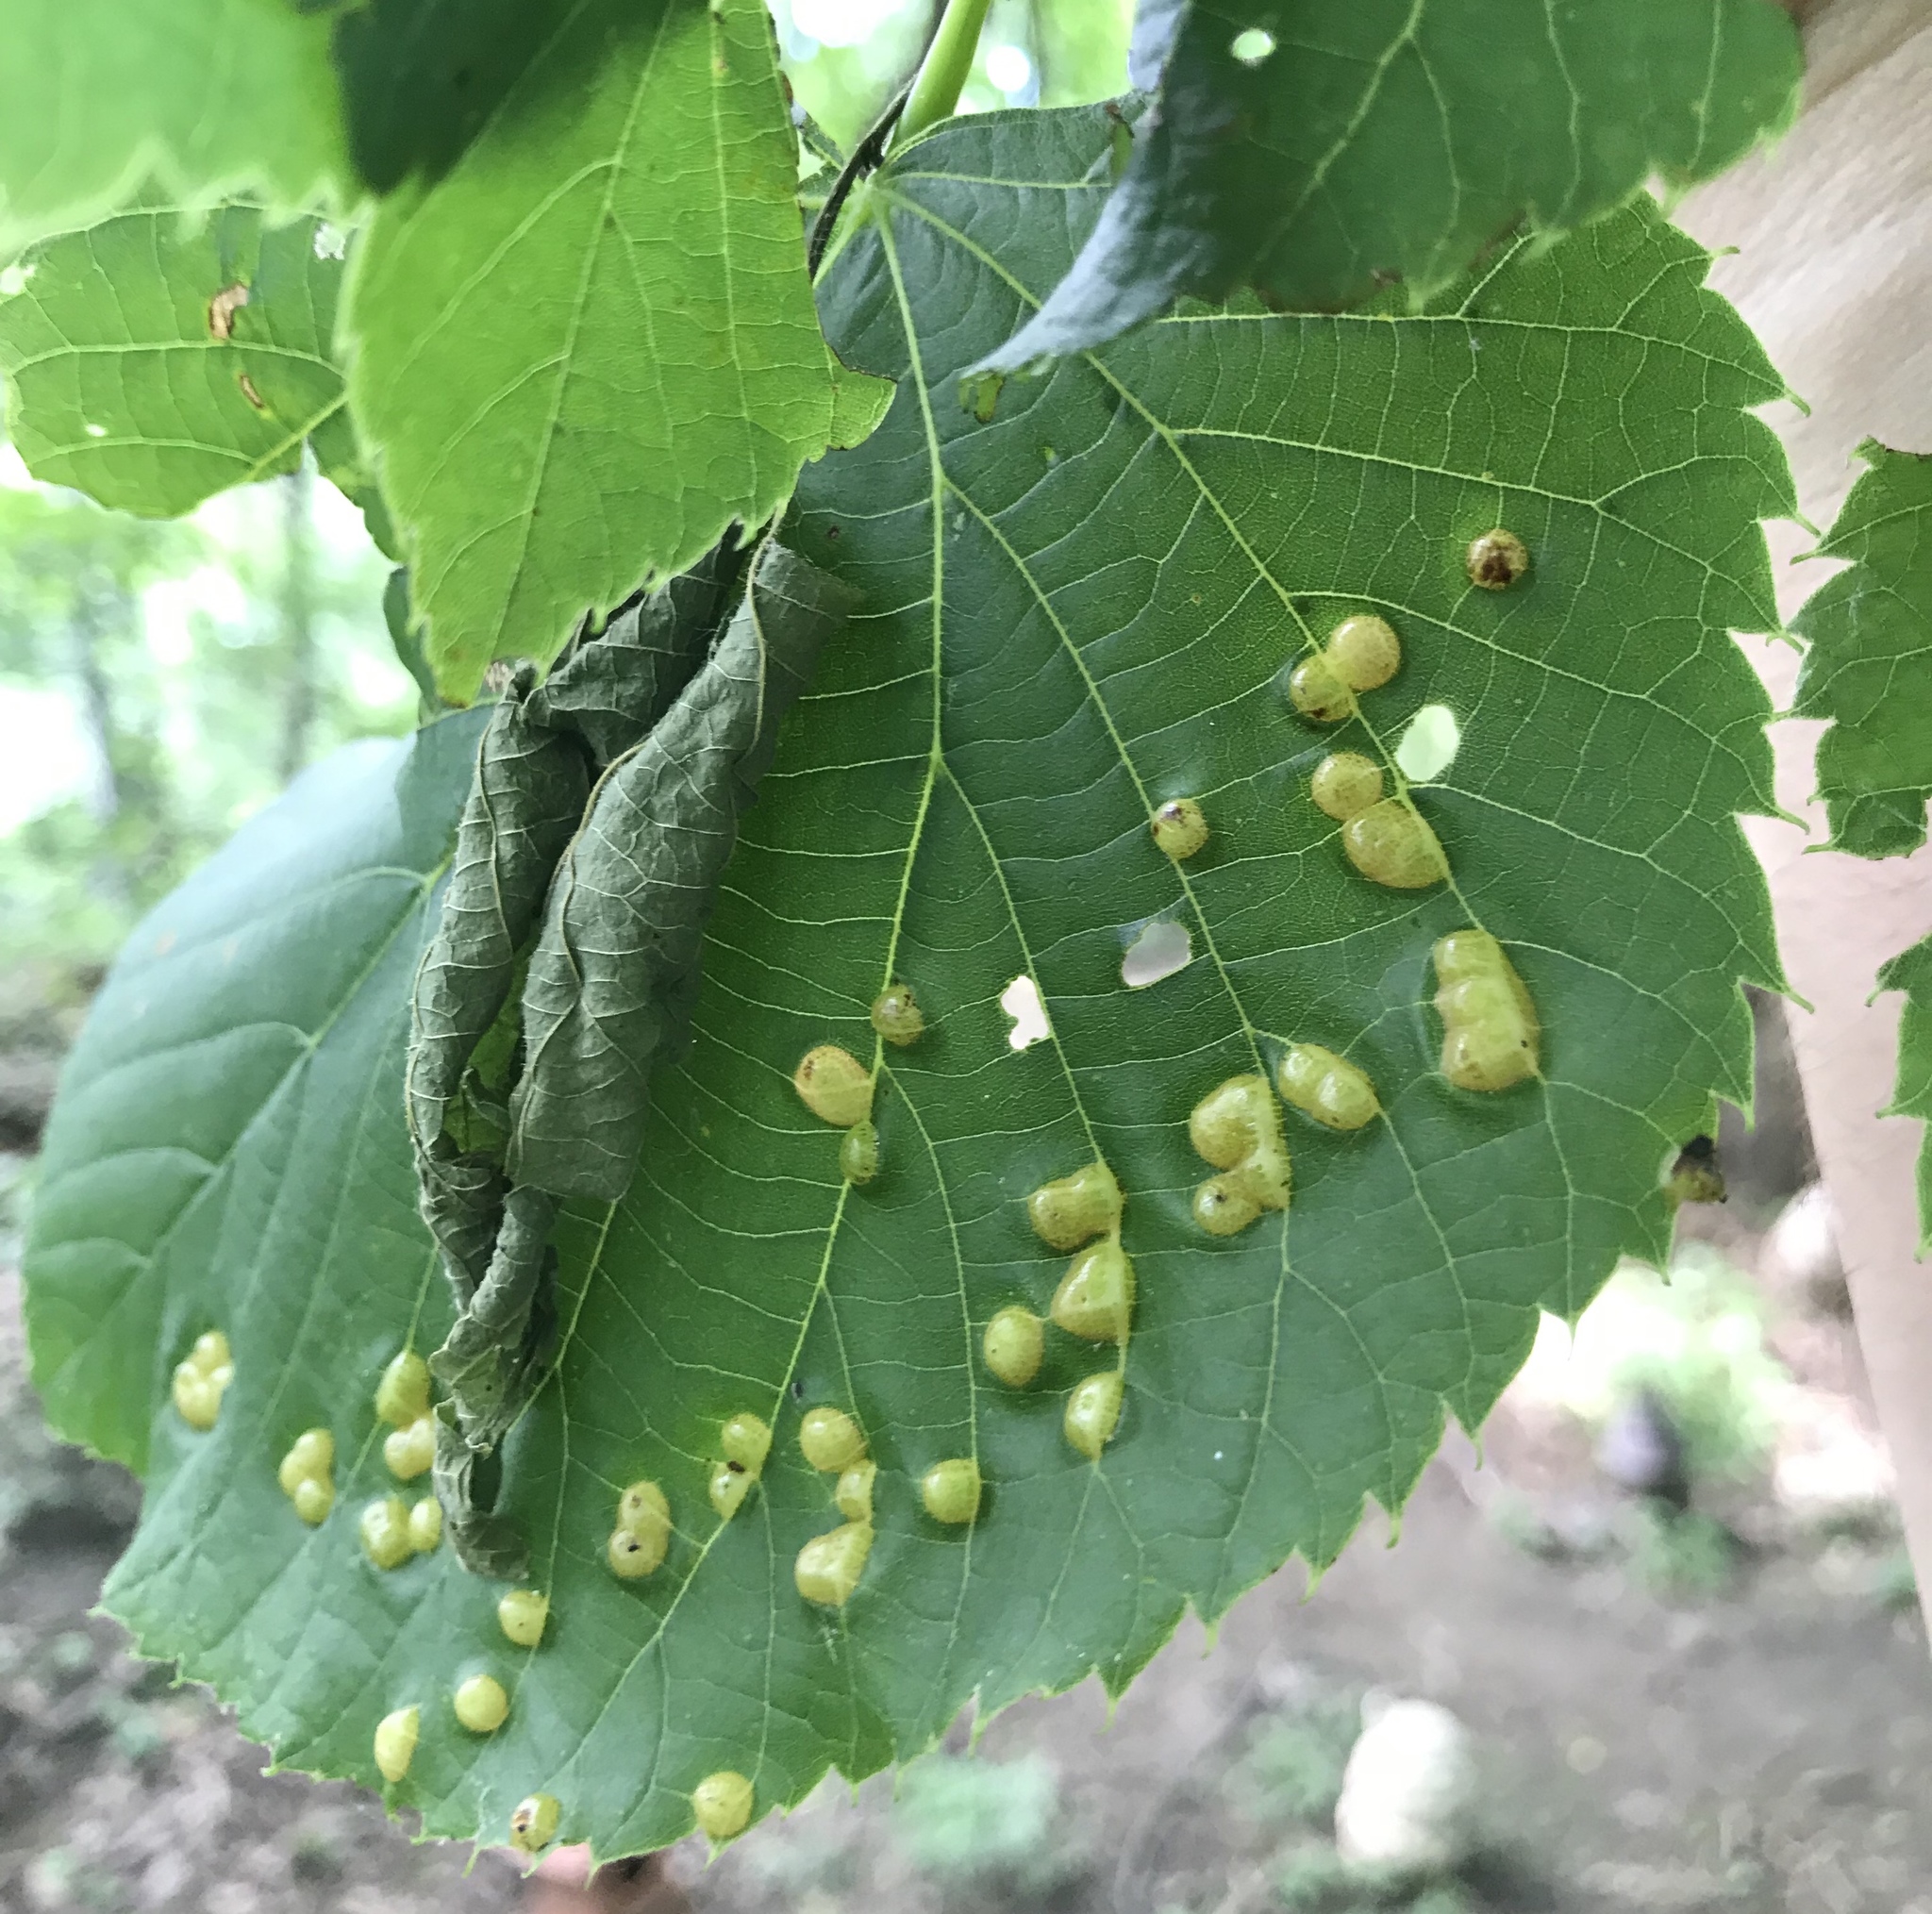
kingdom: Animalia
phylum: Arthropoda
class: Insecta
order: Diptera
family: Cecidomyiidae
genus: Contarinia
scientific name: Contarinia verrucicola
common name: Linden wart gall midge
